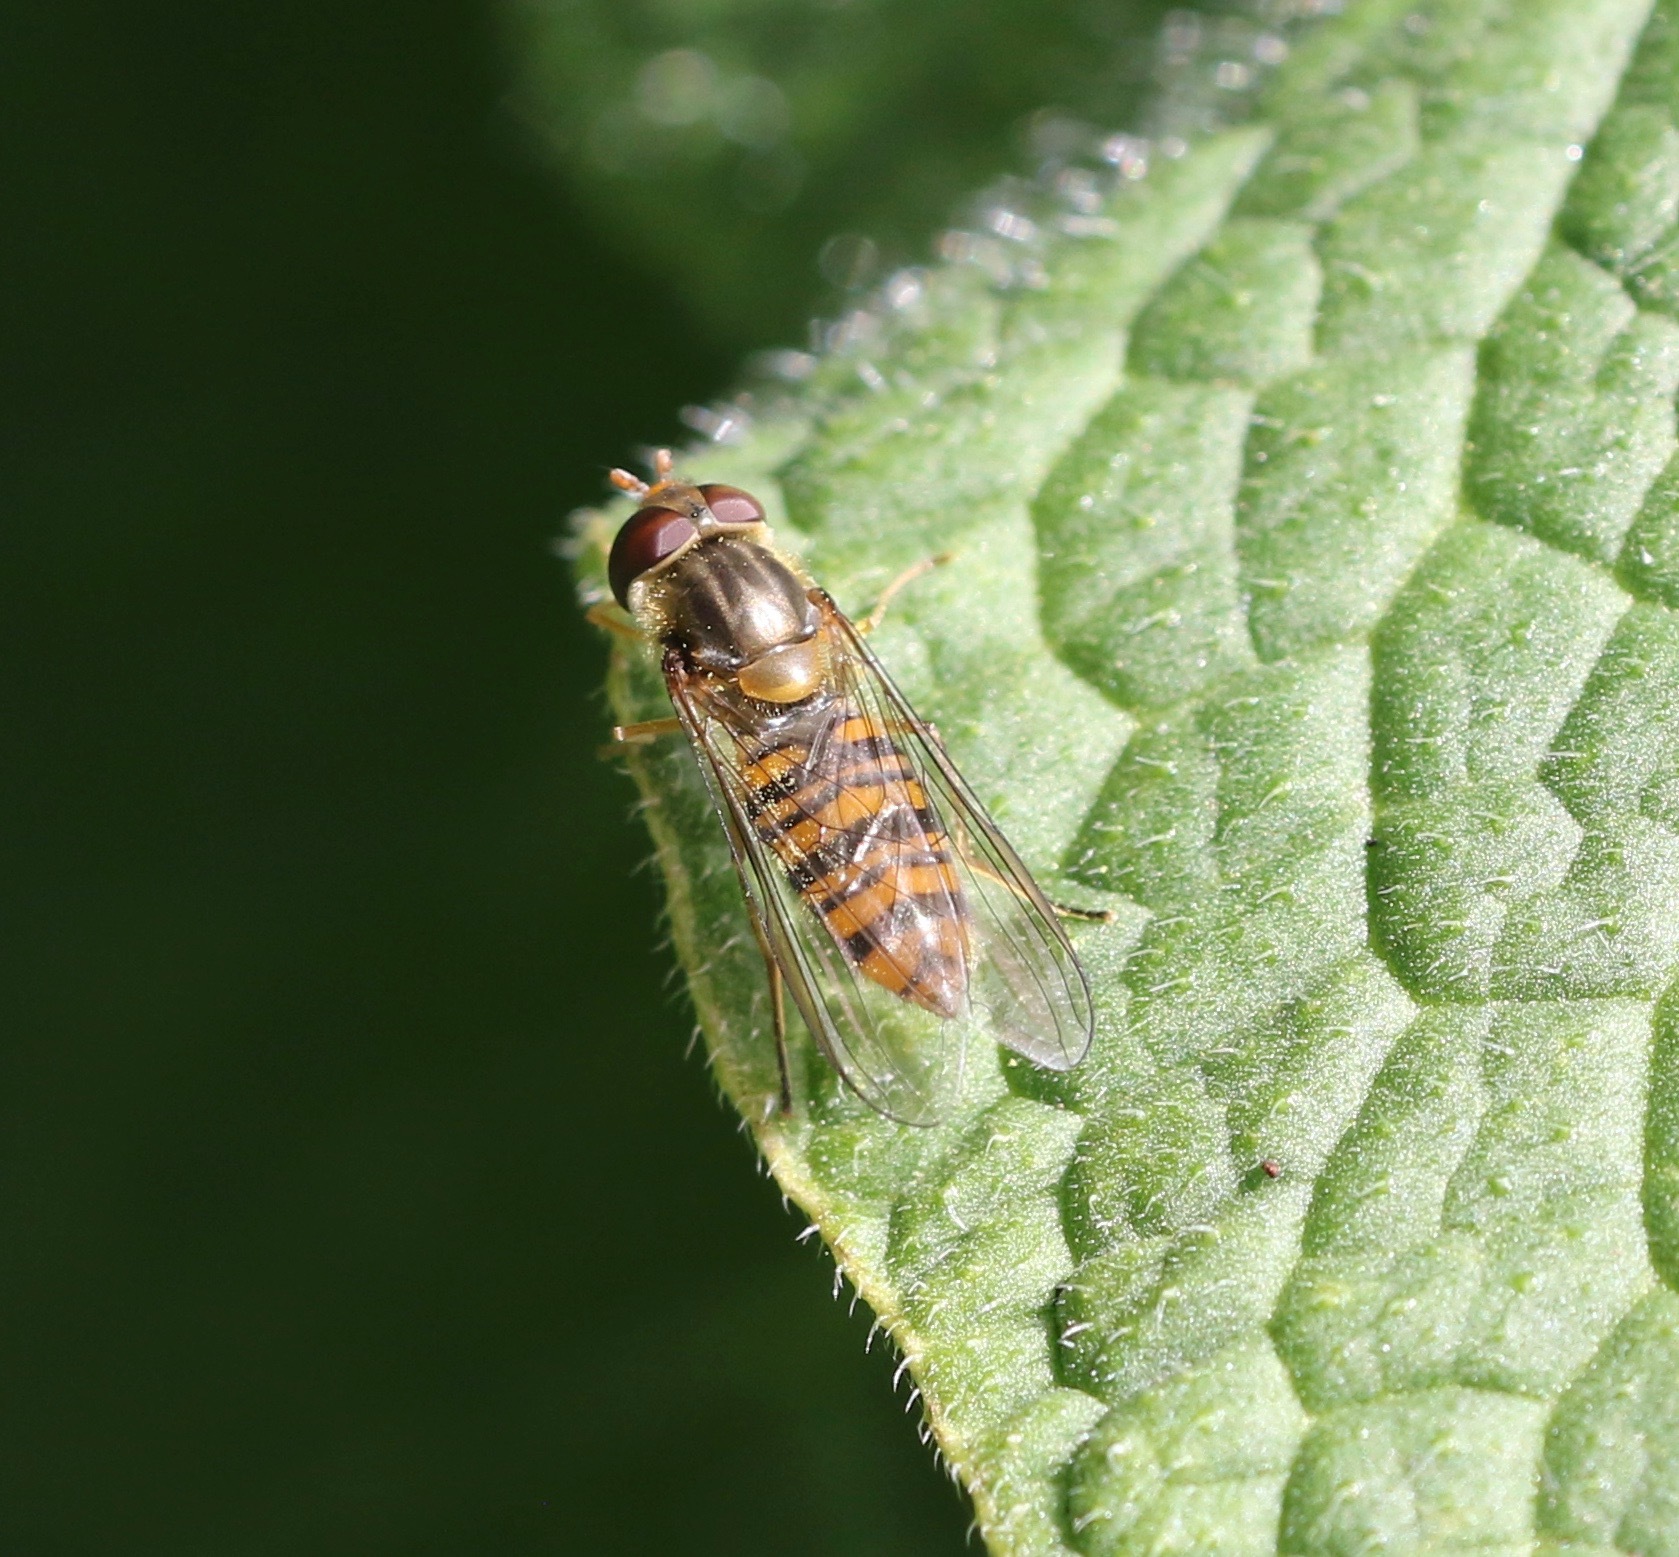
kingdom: Animalia
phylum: Arthropoda
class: Insecta
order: Diptera
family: Syrphidae
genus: Episyrphus
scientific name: Episyrphus balteatus
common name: Marmalade hoverfly
